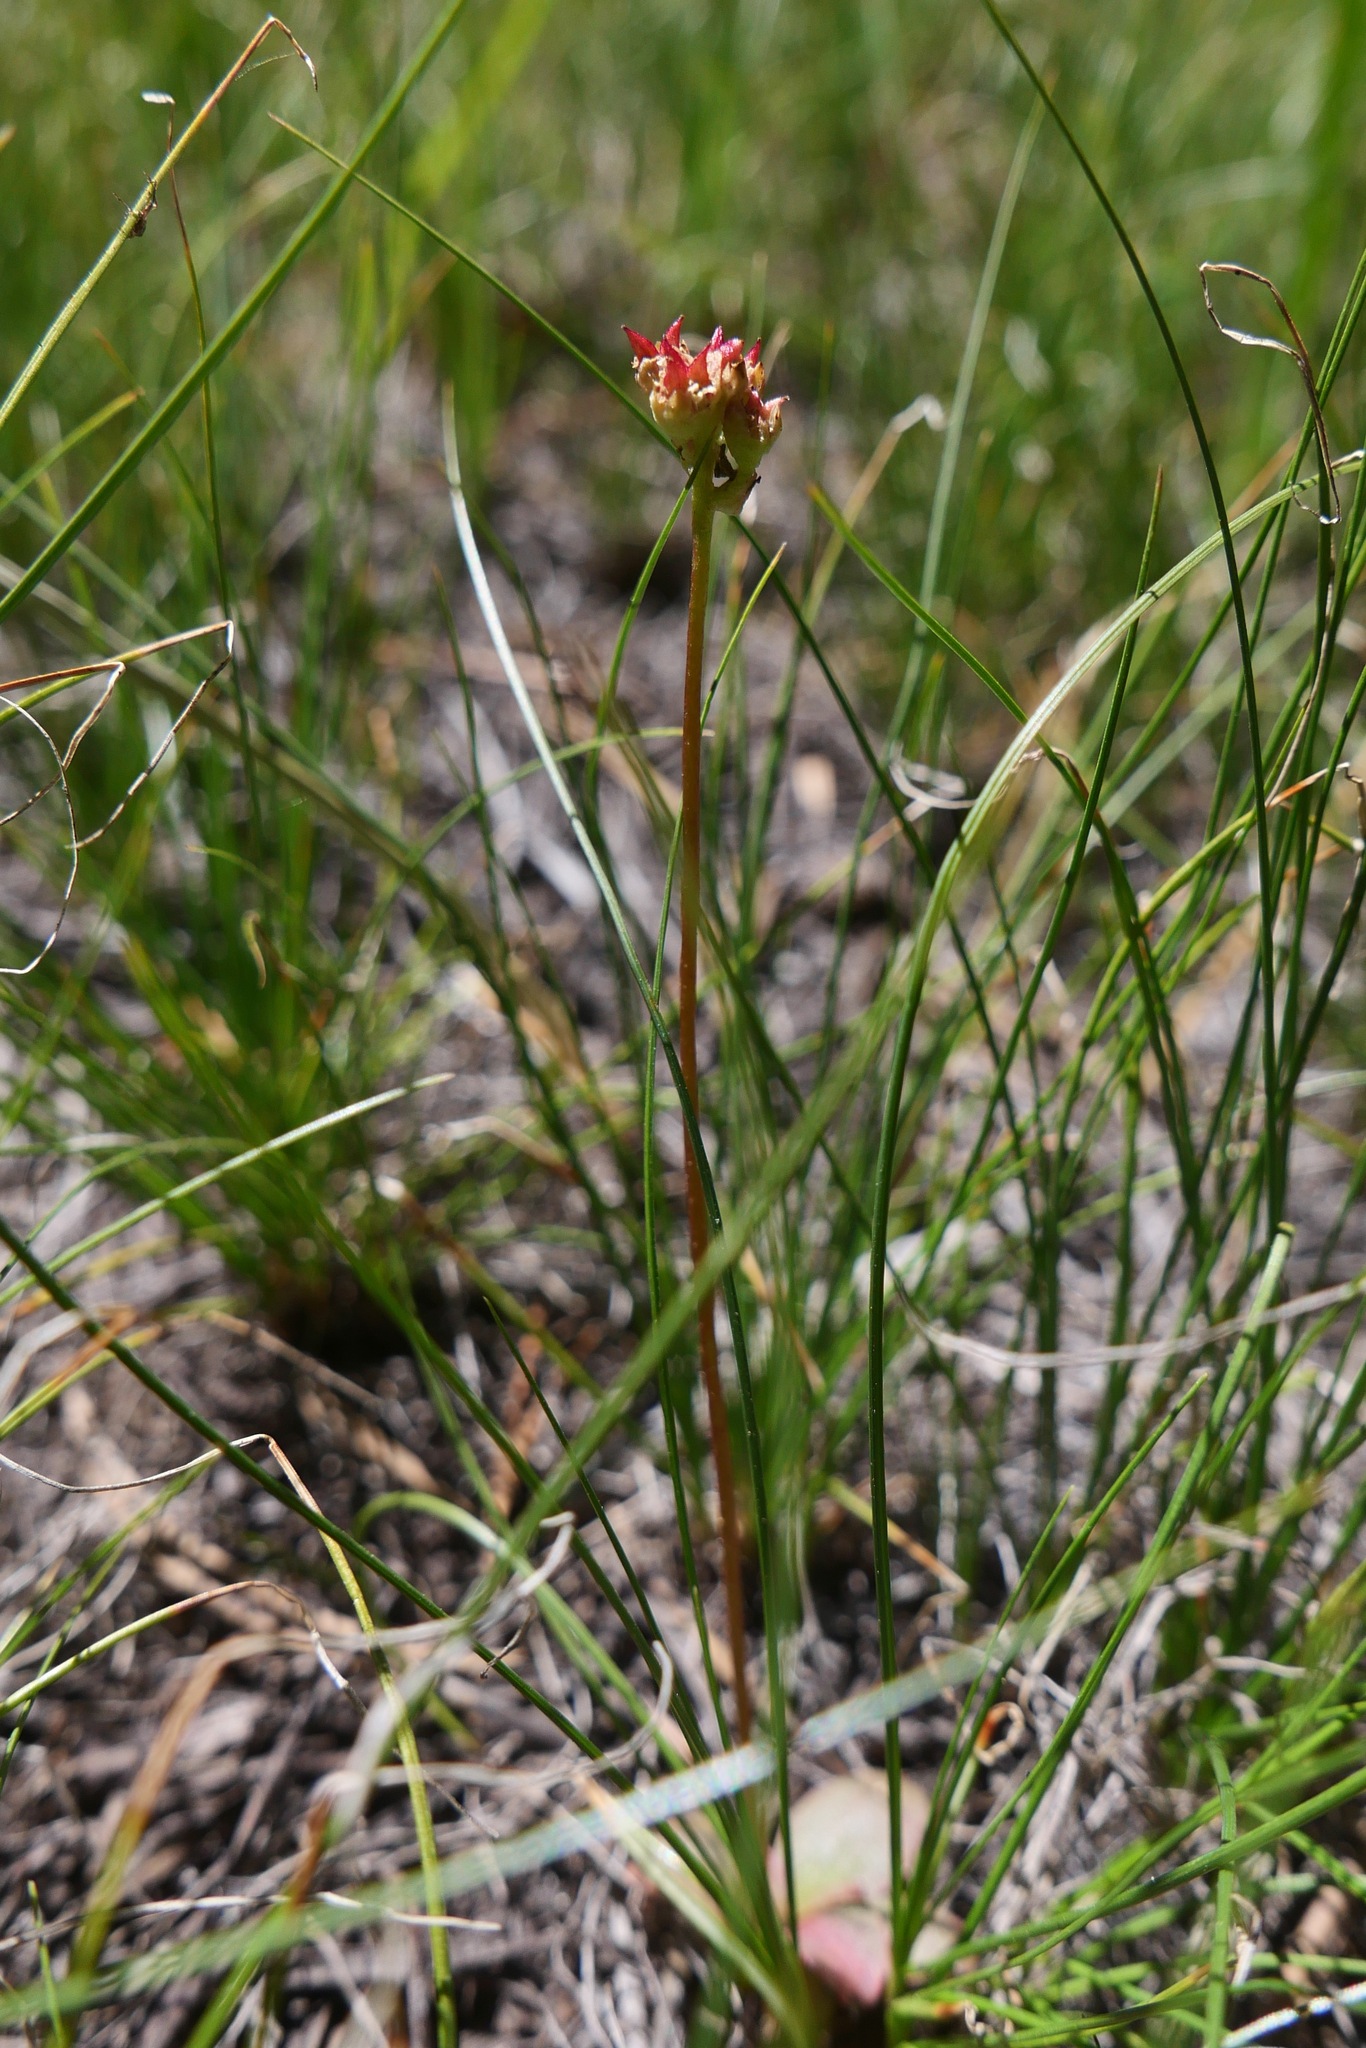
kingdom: Plantae
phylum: Tracheophyta
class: Liliopsida
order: Alismatales
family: Tofieldiaceae
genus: Triantha
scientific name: Triantha occidentalis
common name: Western false asphodel
